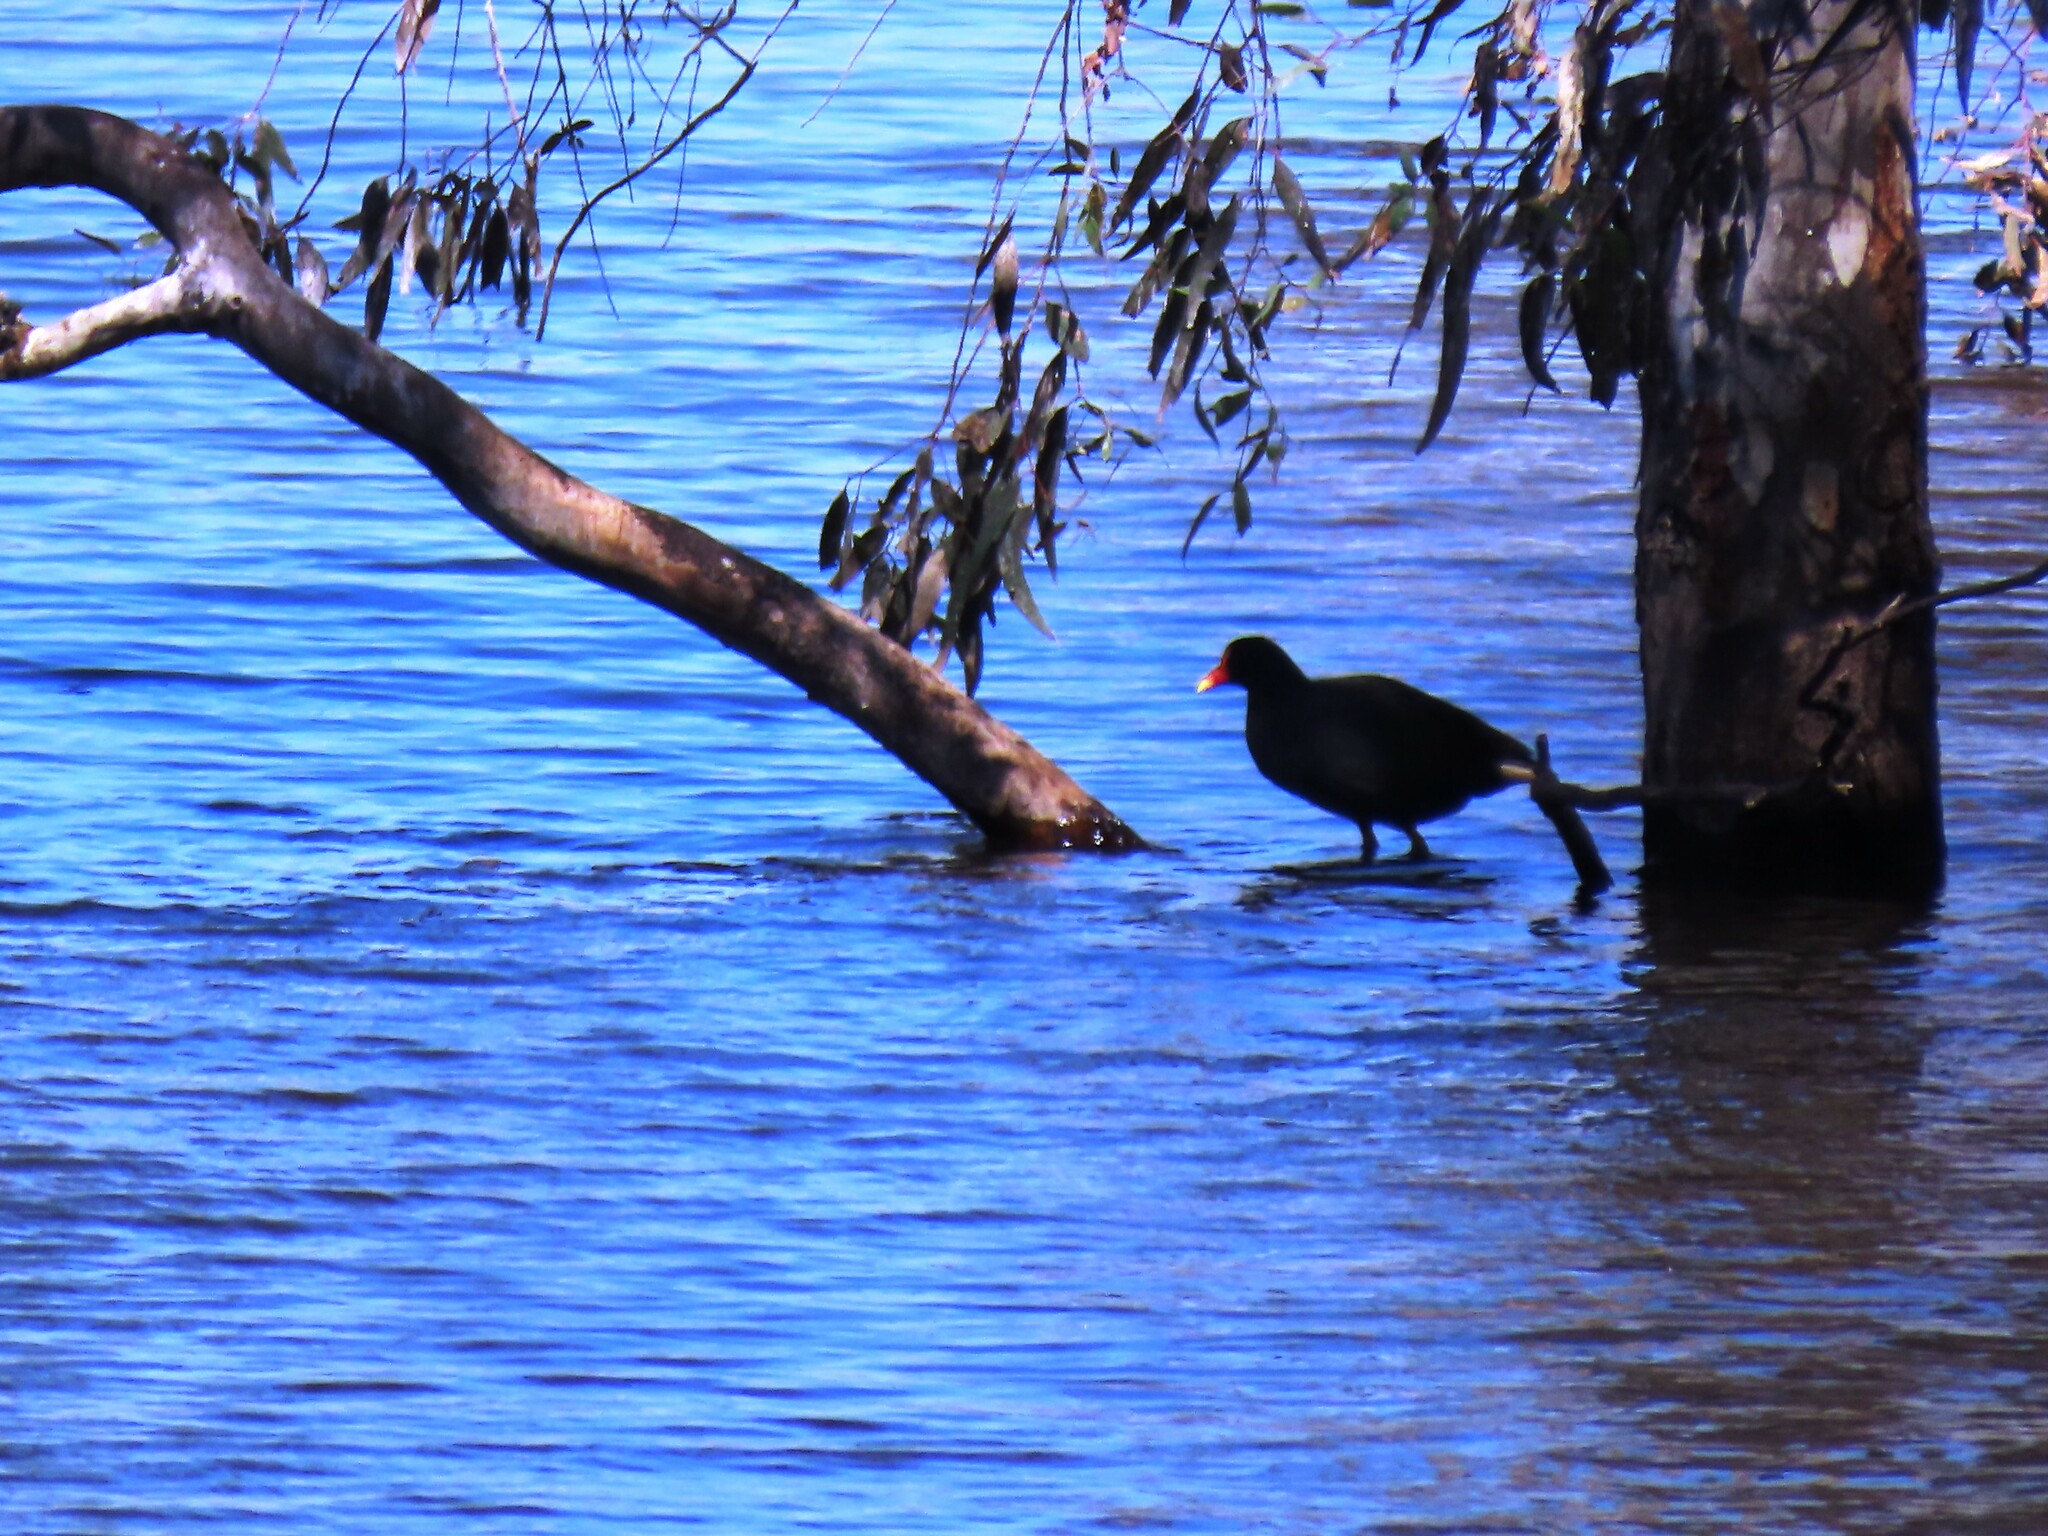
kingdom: Animalia
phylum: Chordata
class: Aves
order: Gruiformes
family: Rallidae
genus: Gallinula
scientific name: Gallinula tenebrosa
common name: Dusky moorhen
